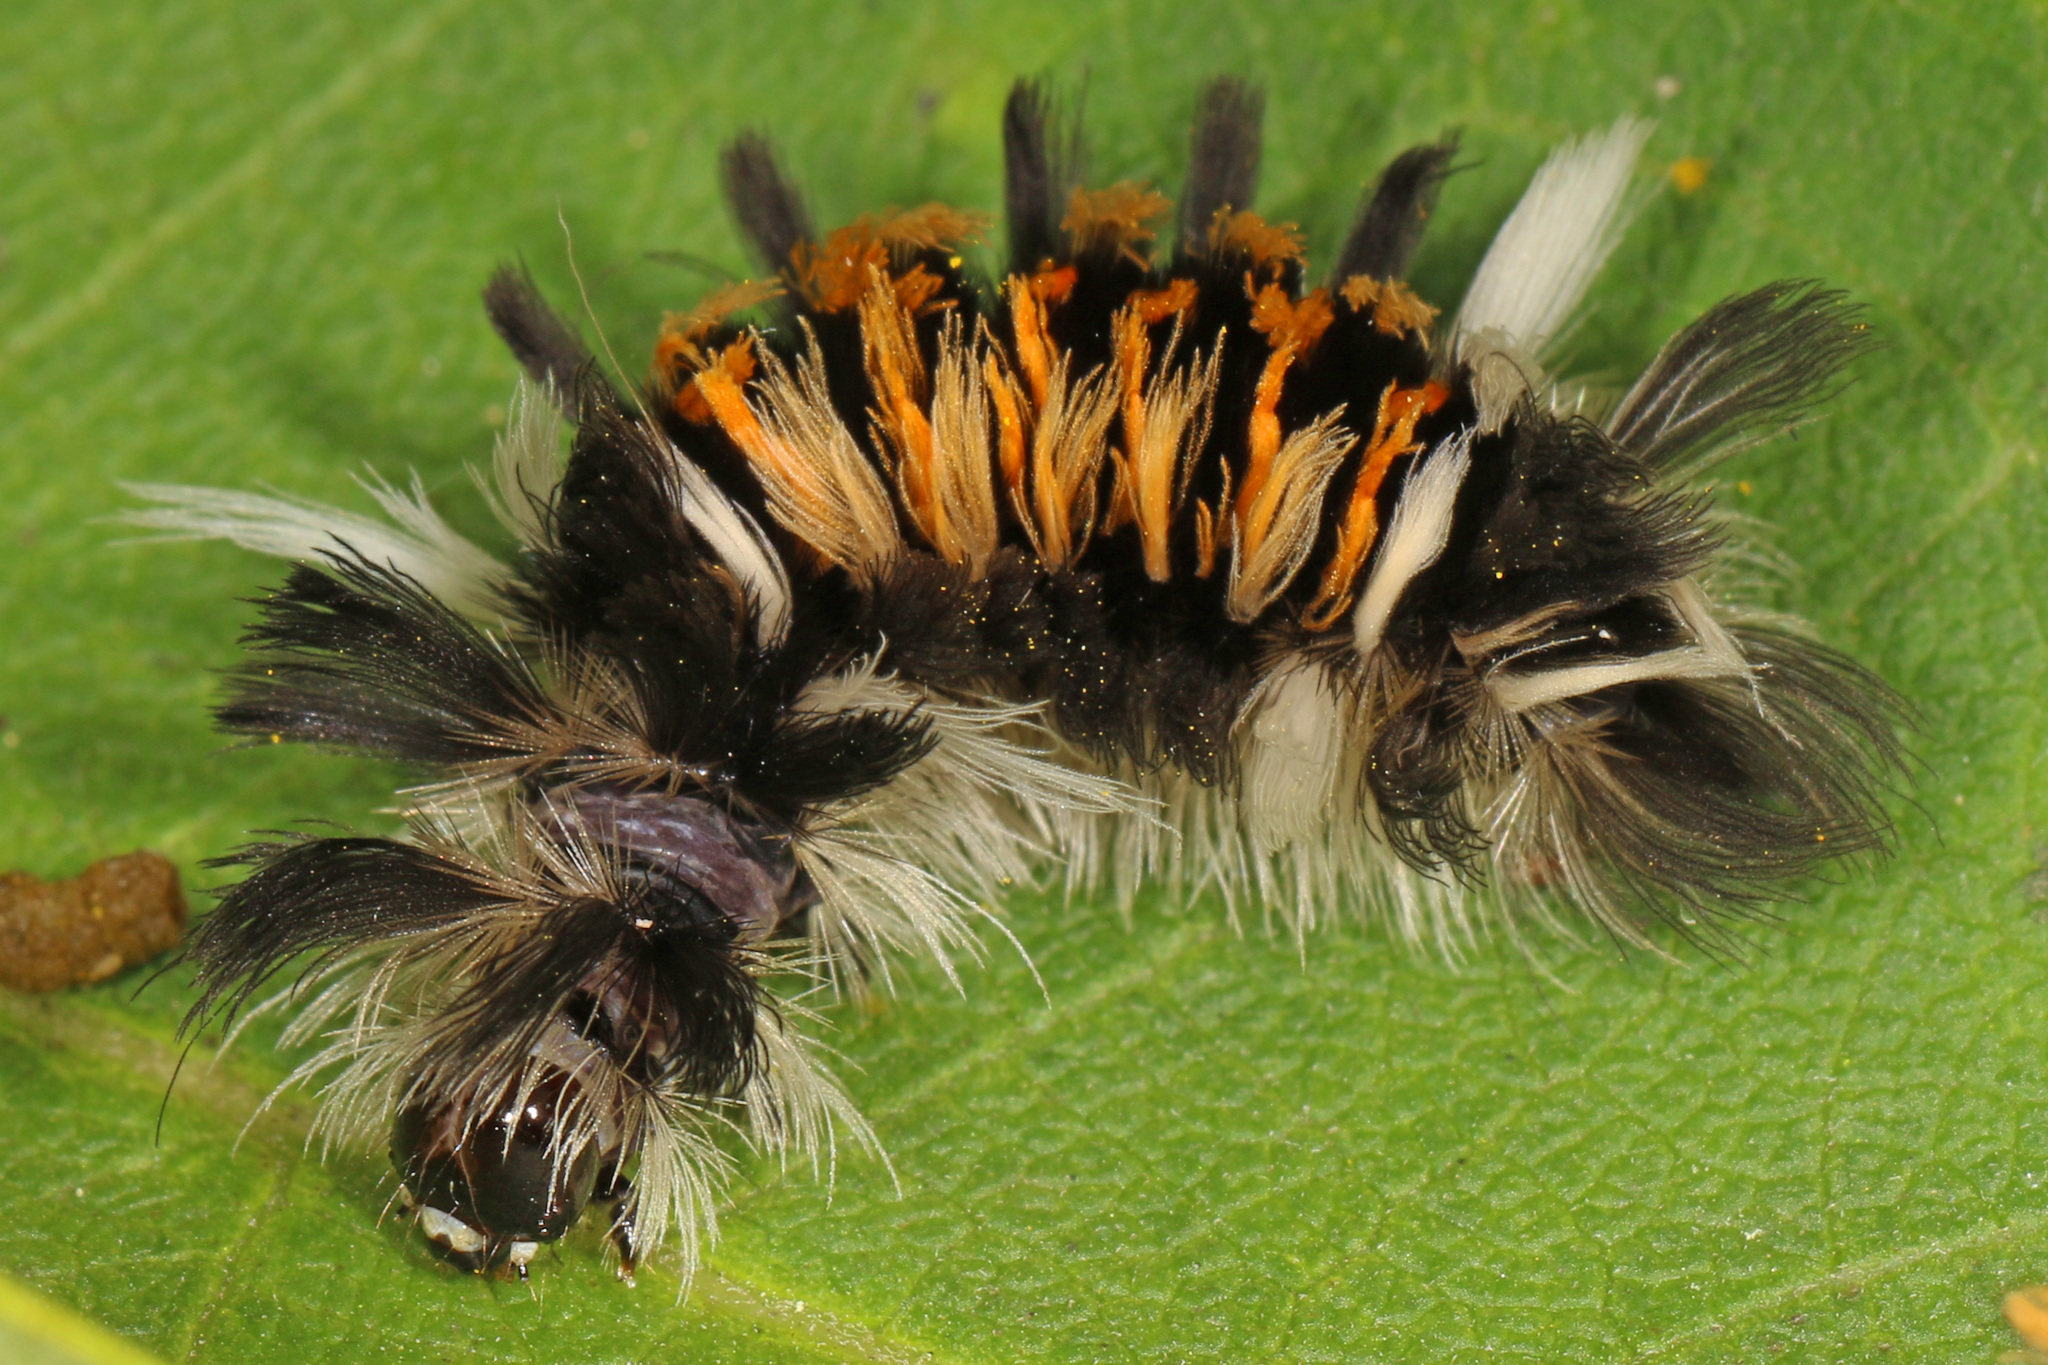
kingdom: Animalia
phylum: Arthropoda
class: Insecta
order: Lepidoptera
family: Erebidae
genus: Euchaetes
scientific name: Euchaetes egle
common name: Milkweed tussock moth
